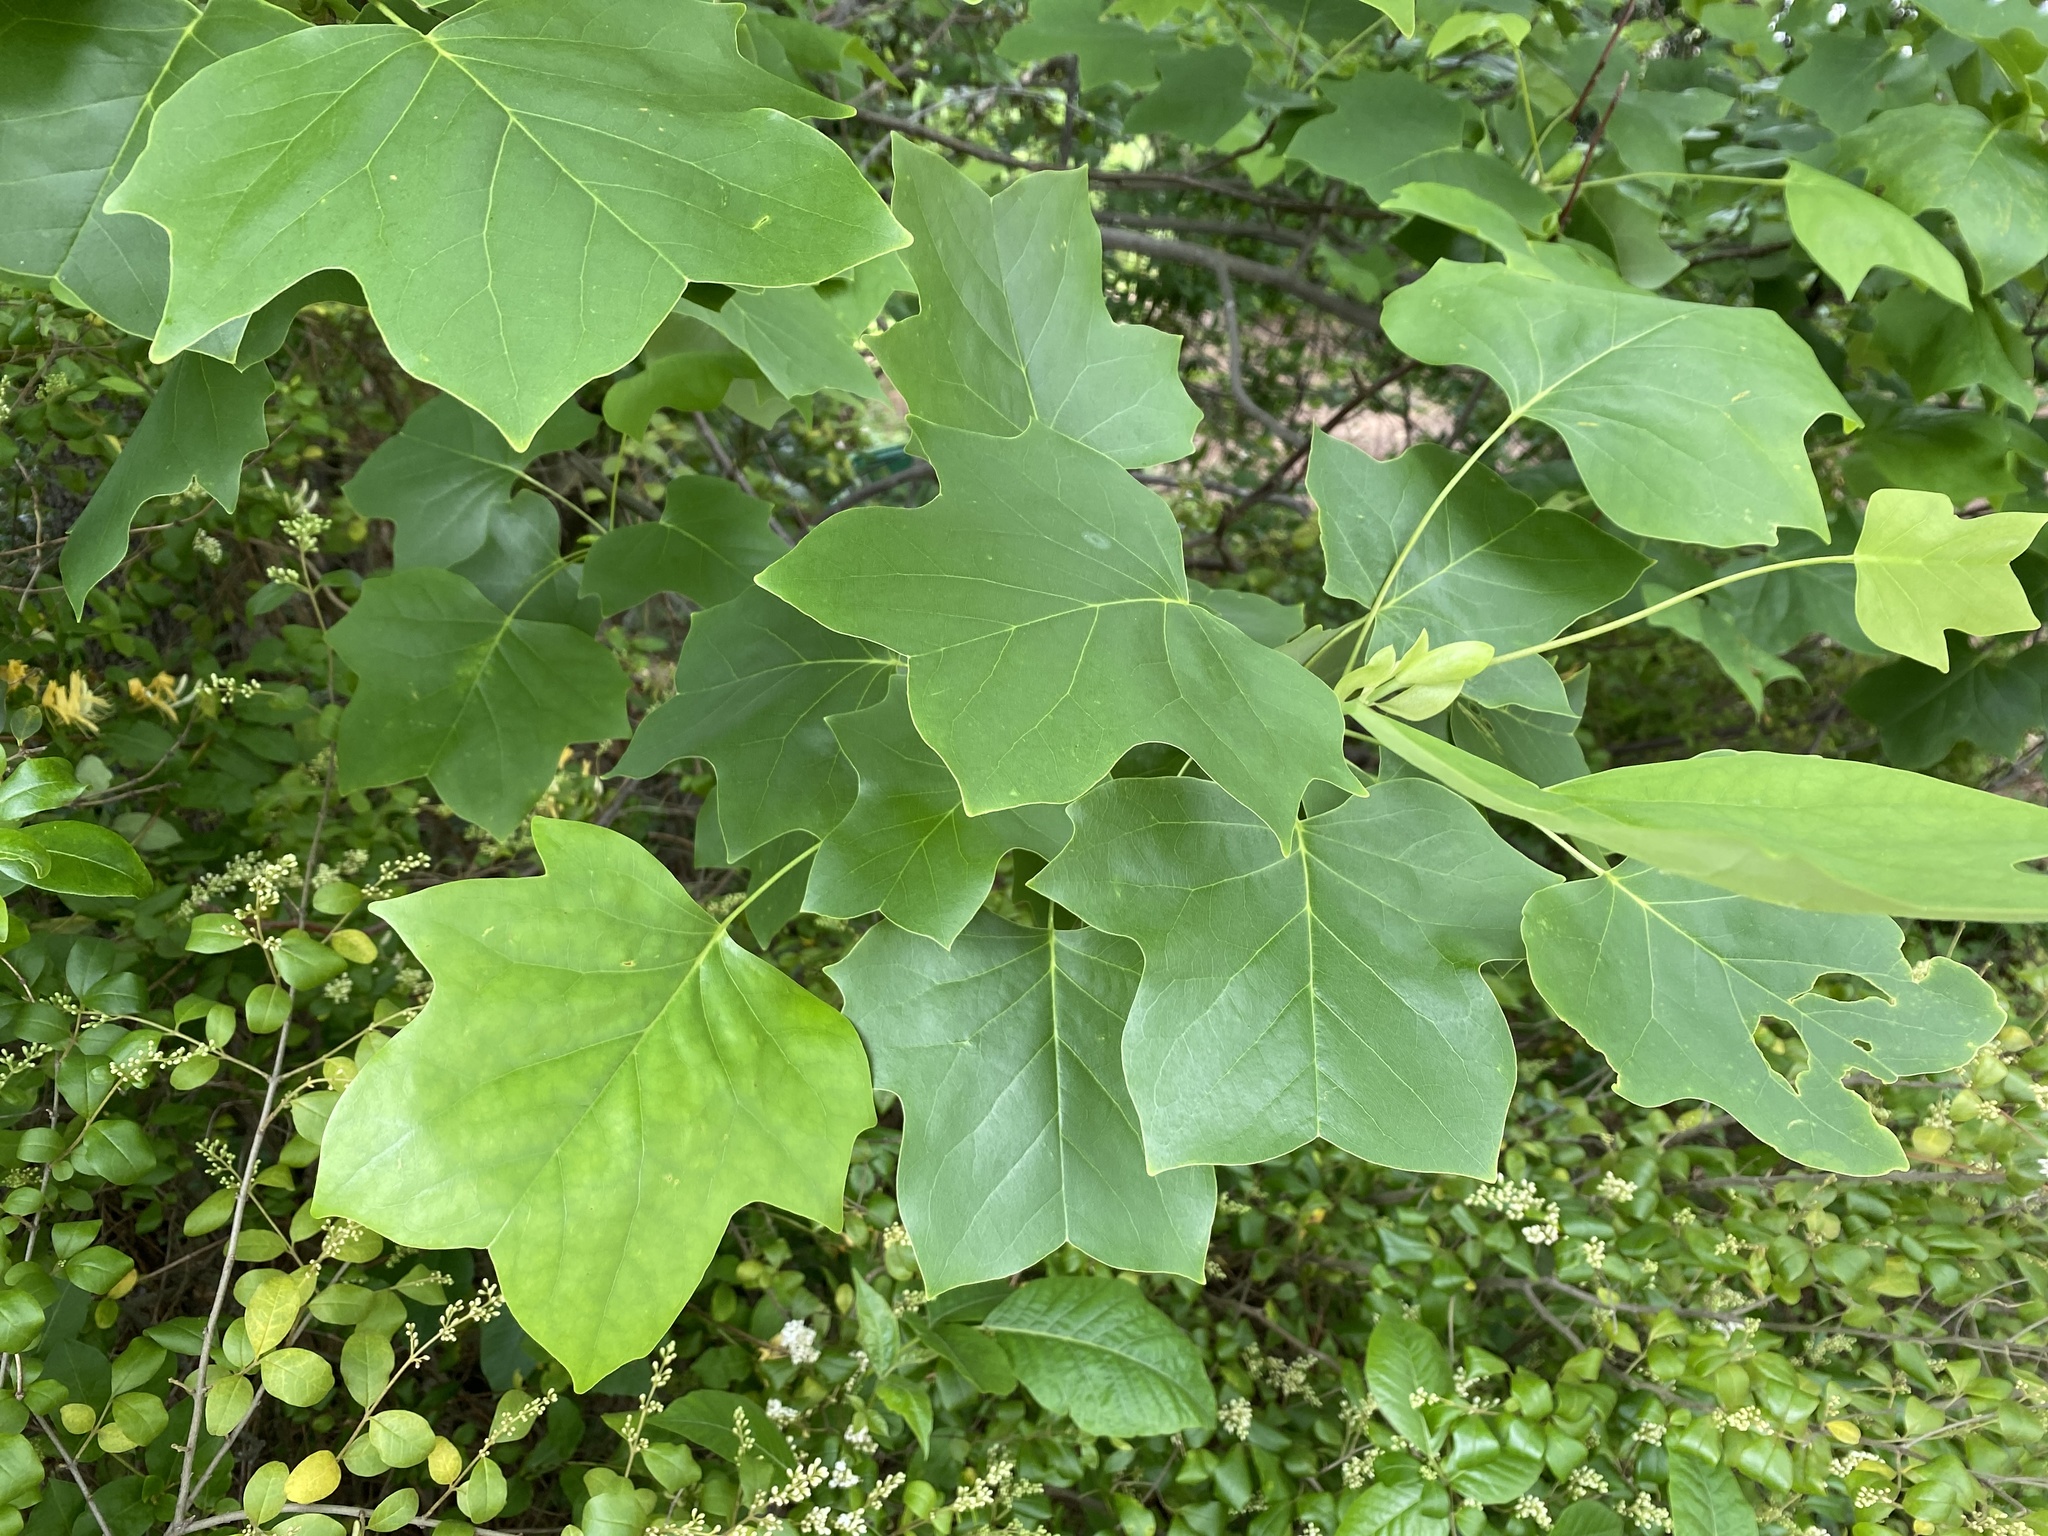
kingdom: Plantae
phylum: Tracheophyta
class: Magnoliopsida
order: Magnoliales
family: Magnoliaceae
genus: Liriodendron
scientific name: Liriodendron tulipifera
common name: Tulip tree
